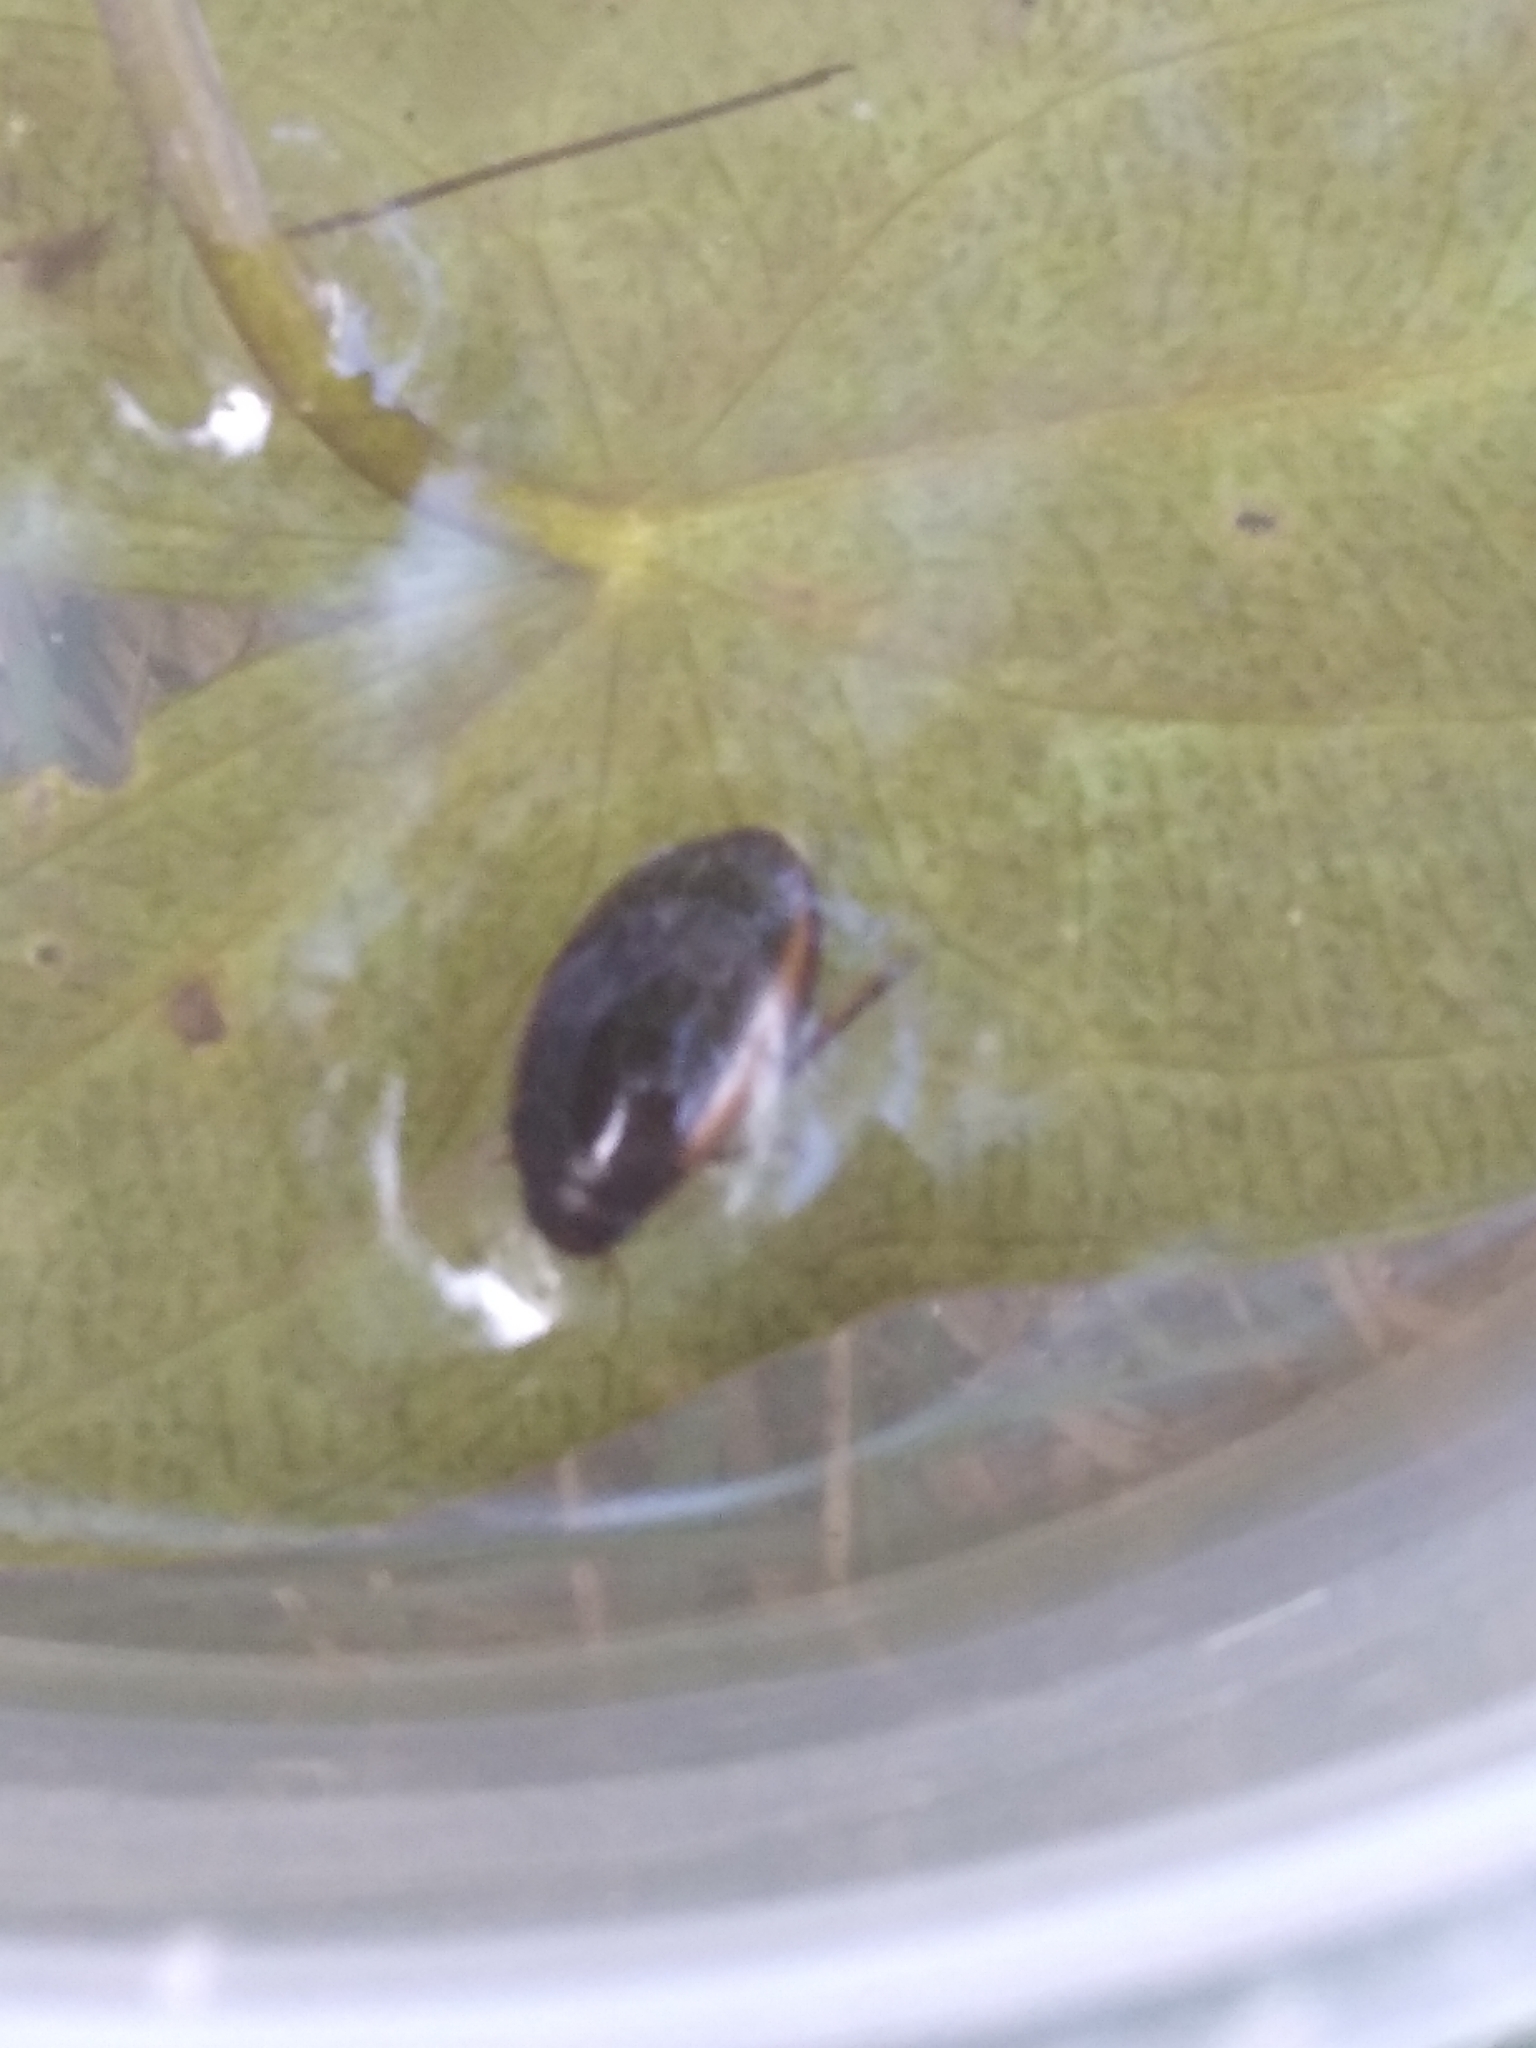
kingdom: Animalia
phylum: Arthropoda
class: Insecta
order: Coleoptera
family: Dytiscidae
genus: Ilybius
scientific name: Ilybius fuliginosus
